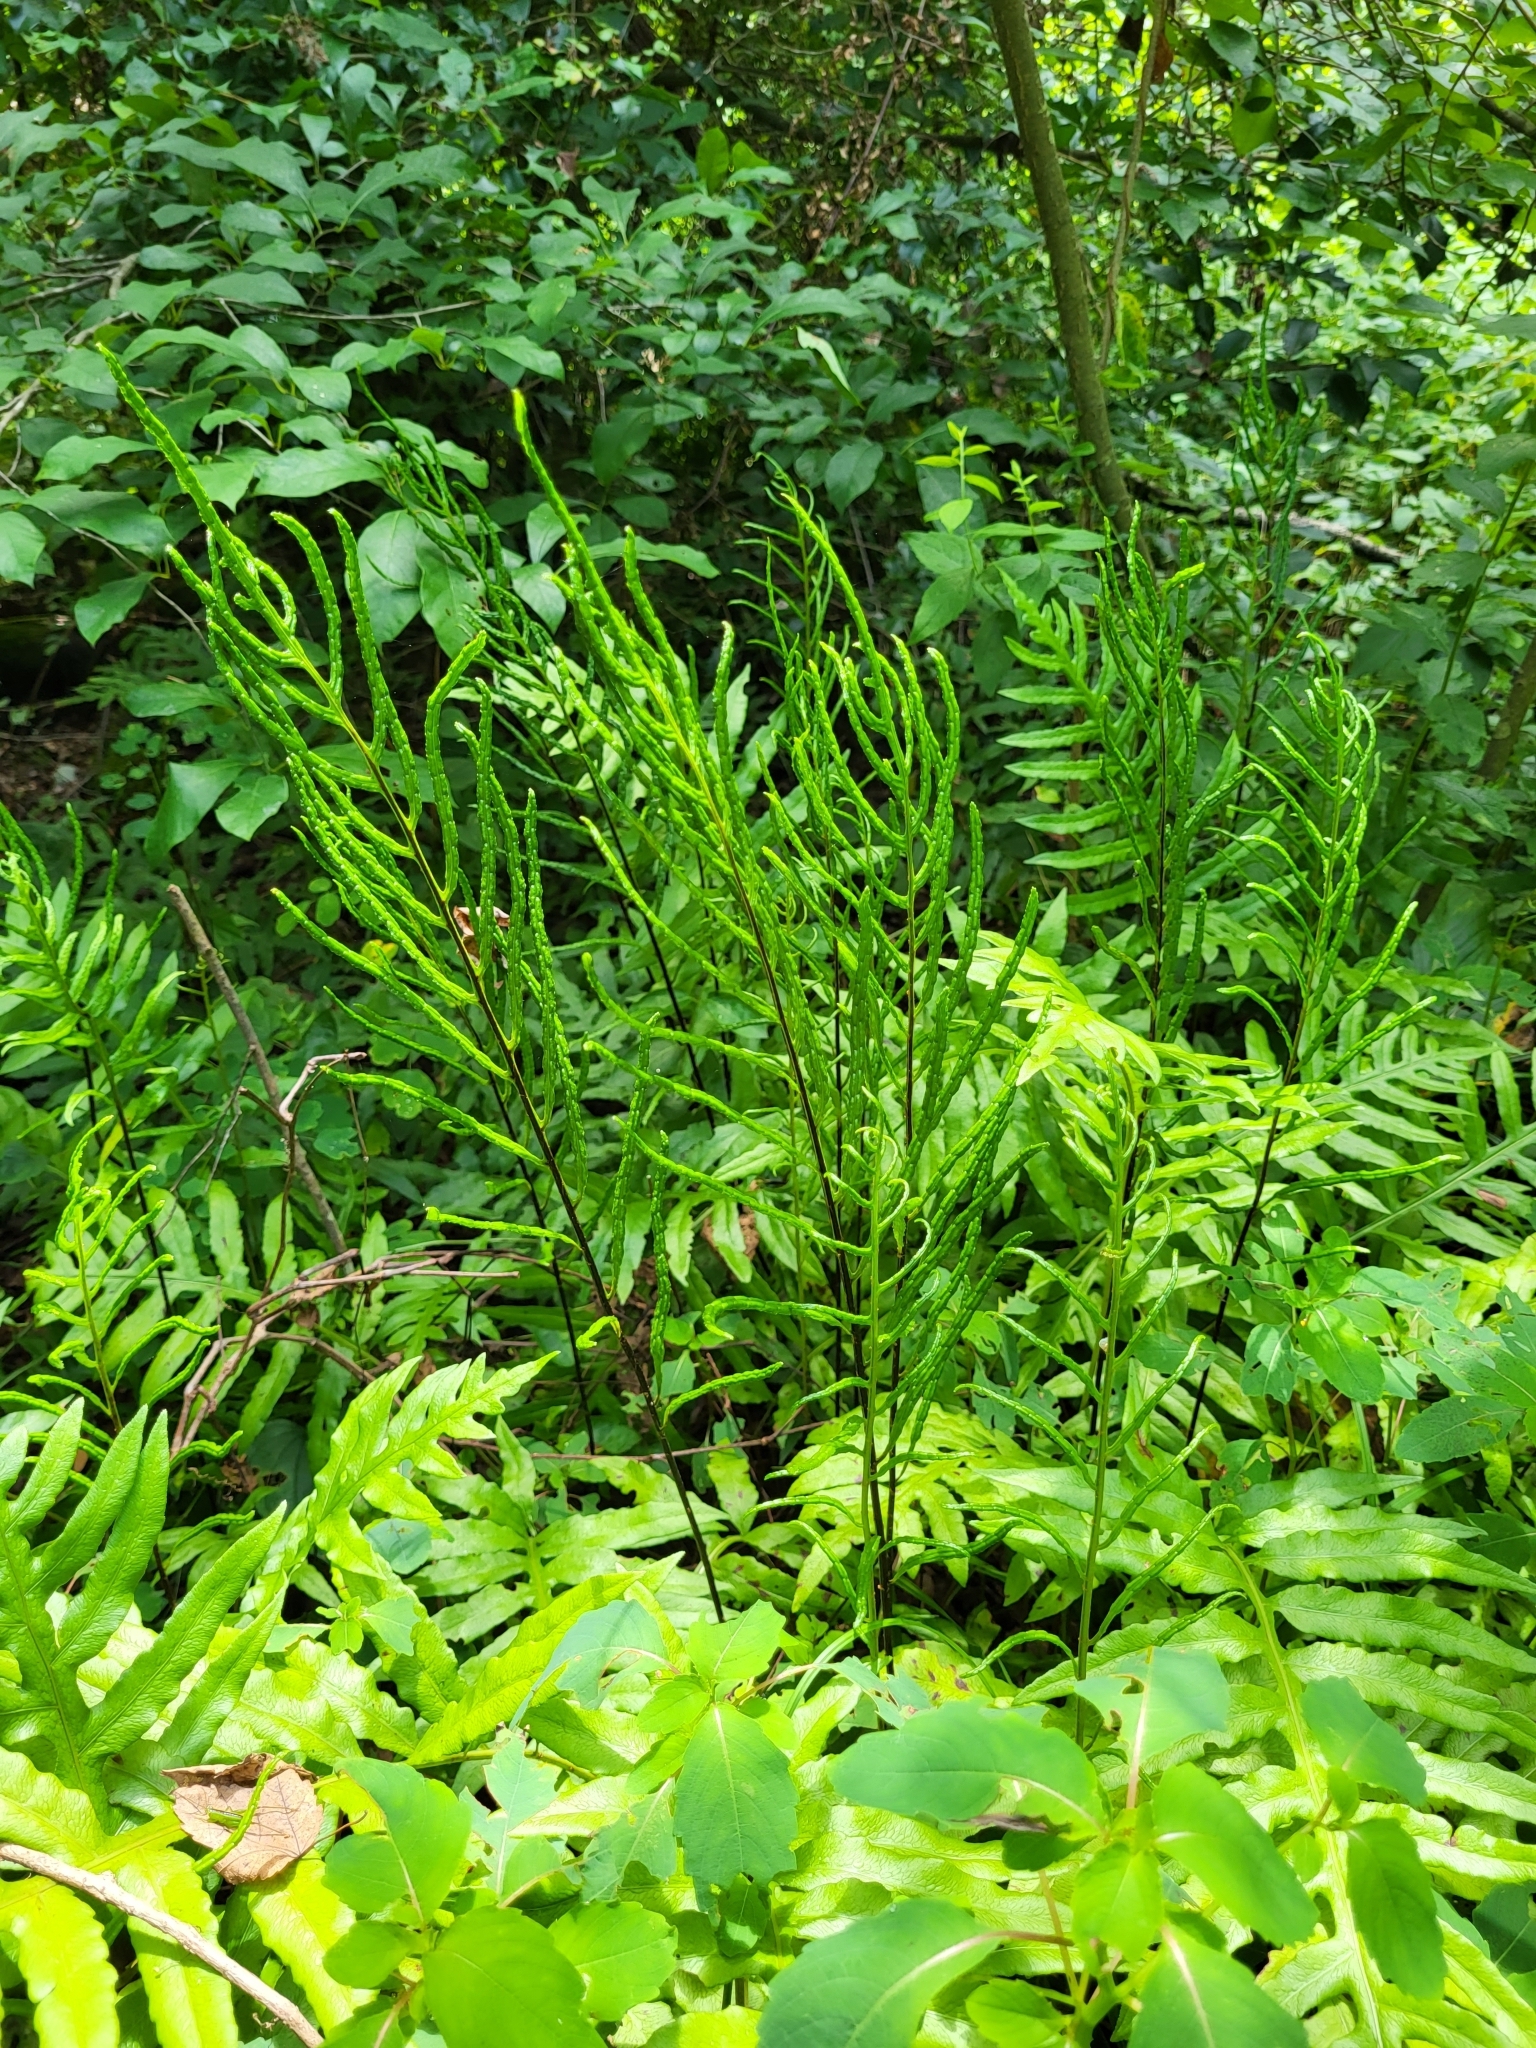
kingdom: Plantae
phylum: Tracheophyta
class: Polypodiopsida
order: Polypodiales
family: Blechnaceae
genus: Lorinseria
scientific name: Lorinseria areolata
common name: Dwarf chain fern
